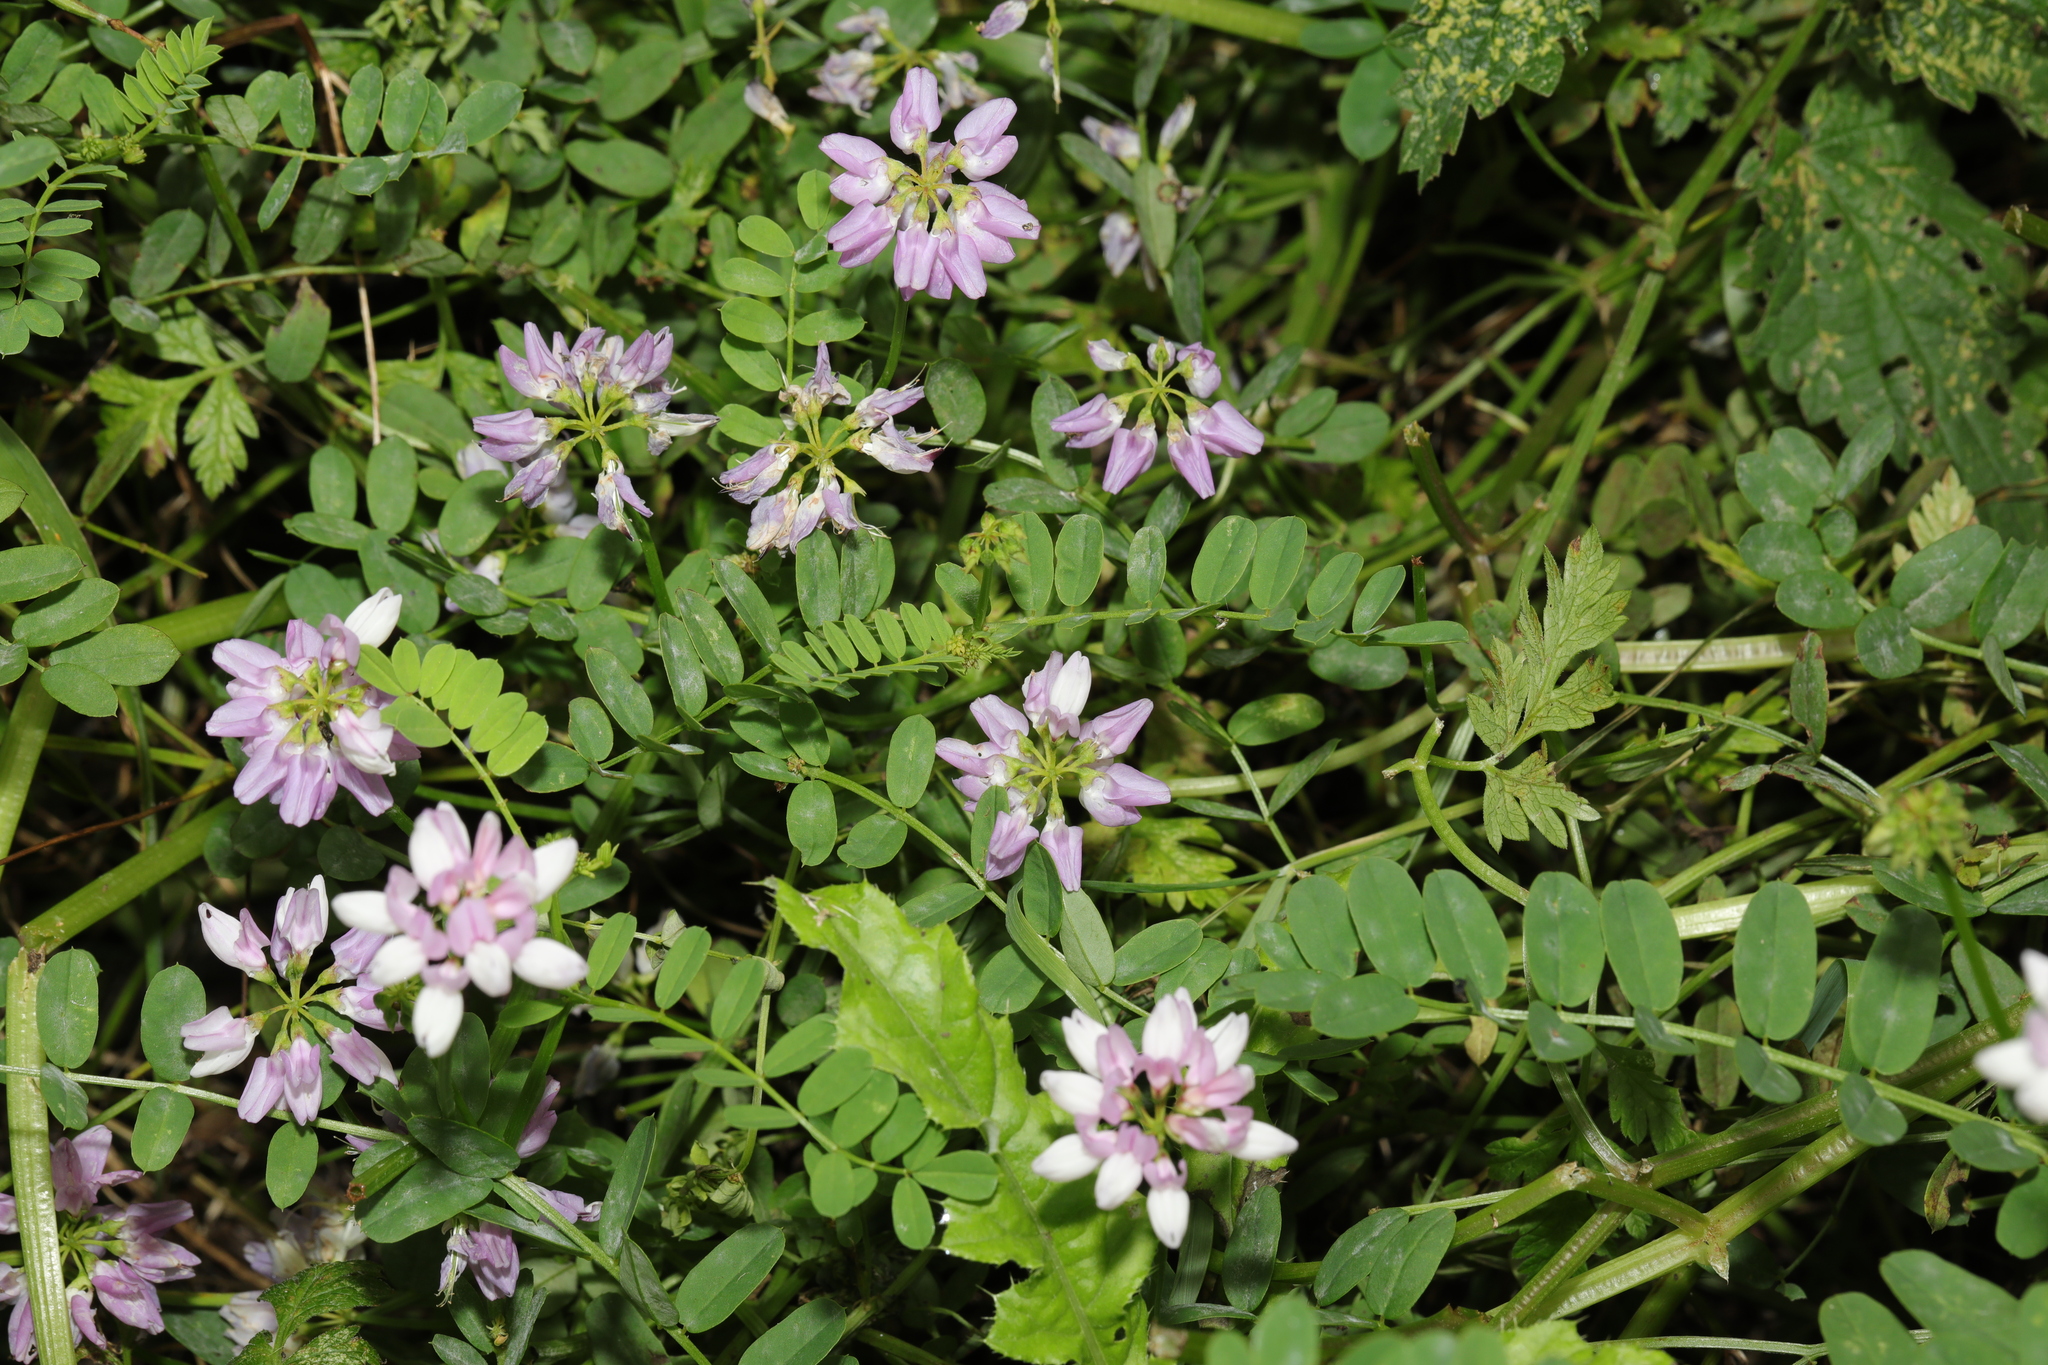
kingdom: Plantae
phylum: Tracheophyta
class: Magnoliopsida
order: Fabales
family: Fabaceae
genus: Coronilla
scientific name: Coronilla varia
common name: Crownvetch
